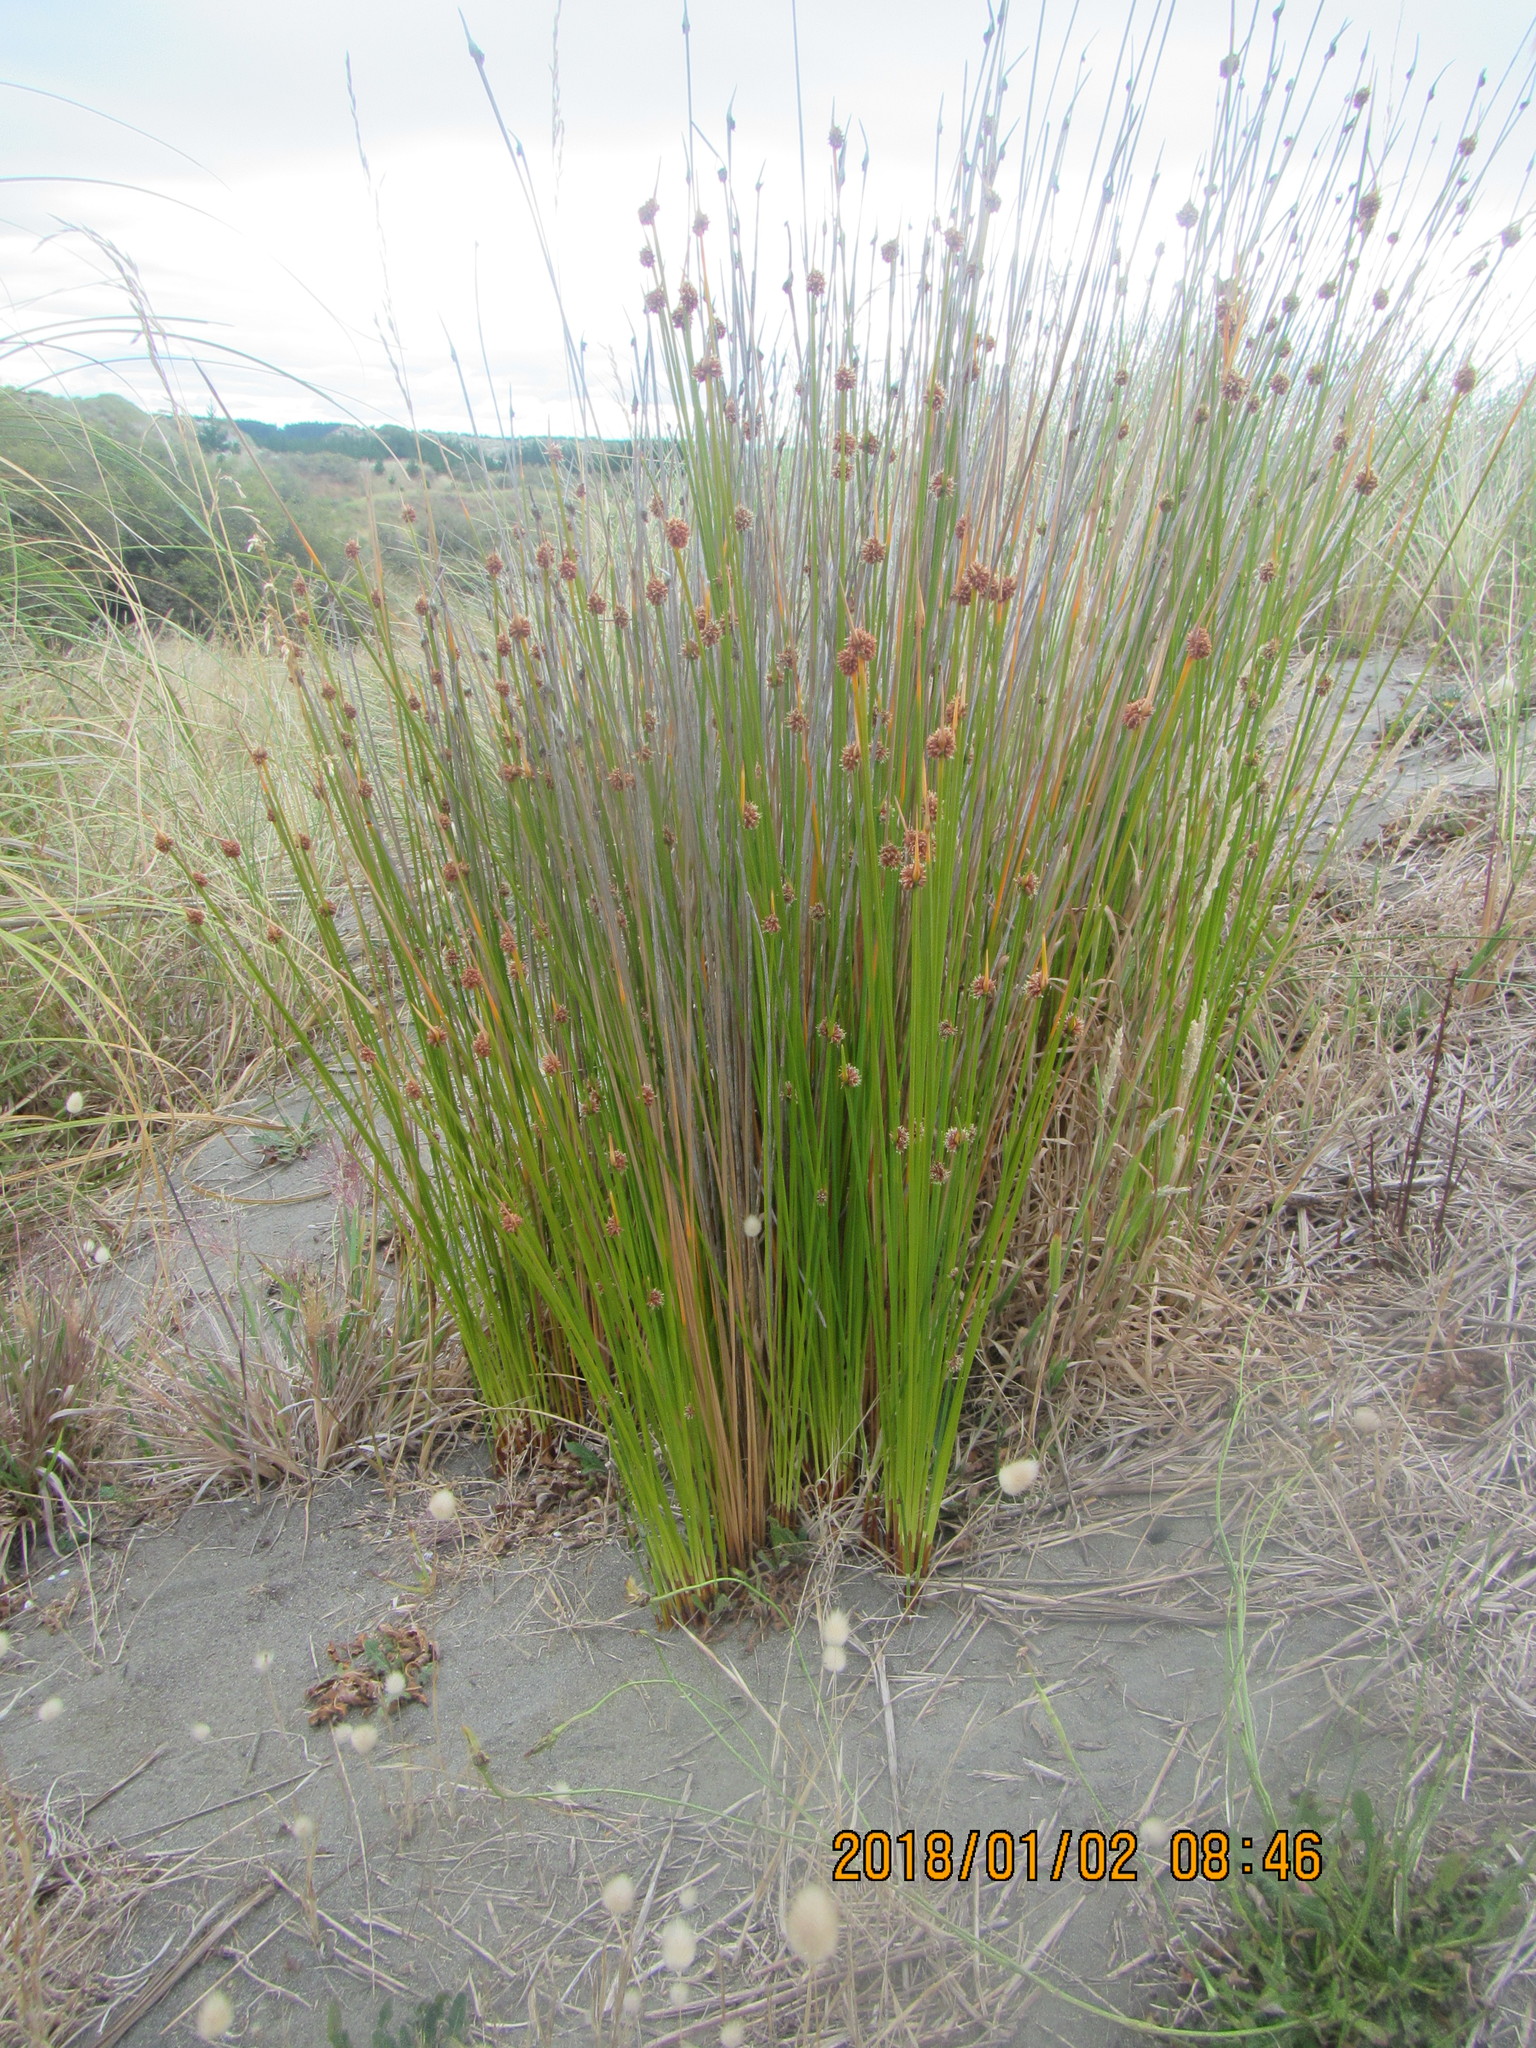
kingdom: Plantae
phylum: Tracheophyta
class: Liliopsida
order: Poales
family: Cyperaceae
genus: Ficinia
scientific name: Ficinia nodosa
